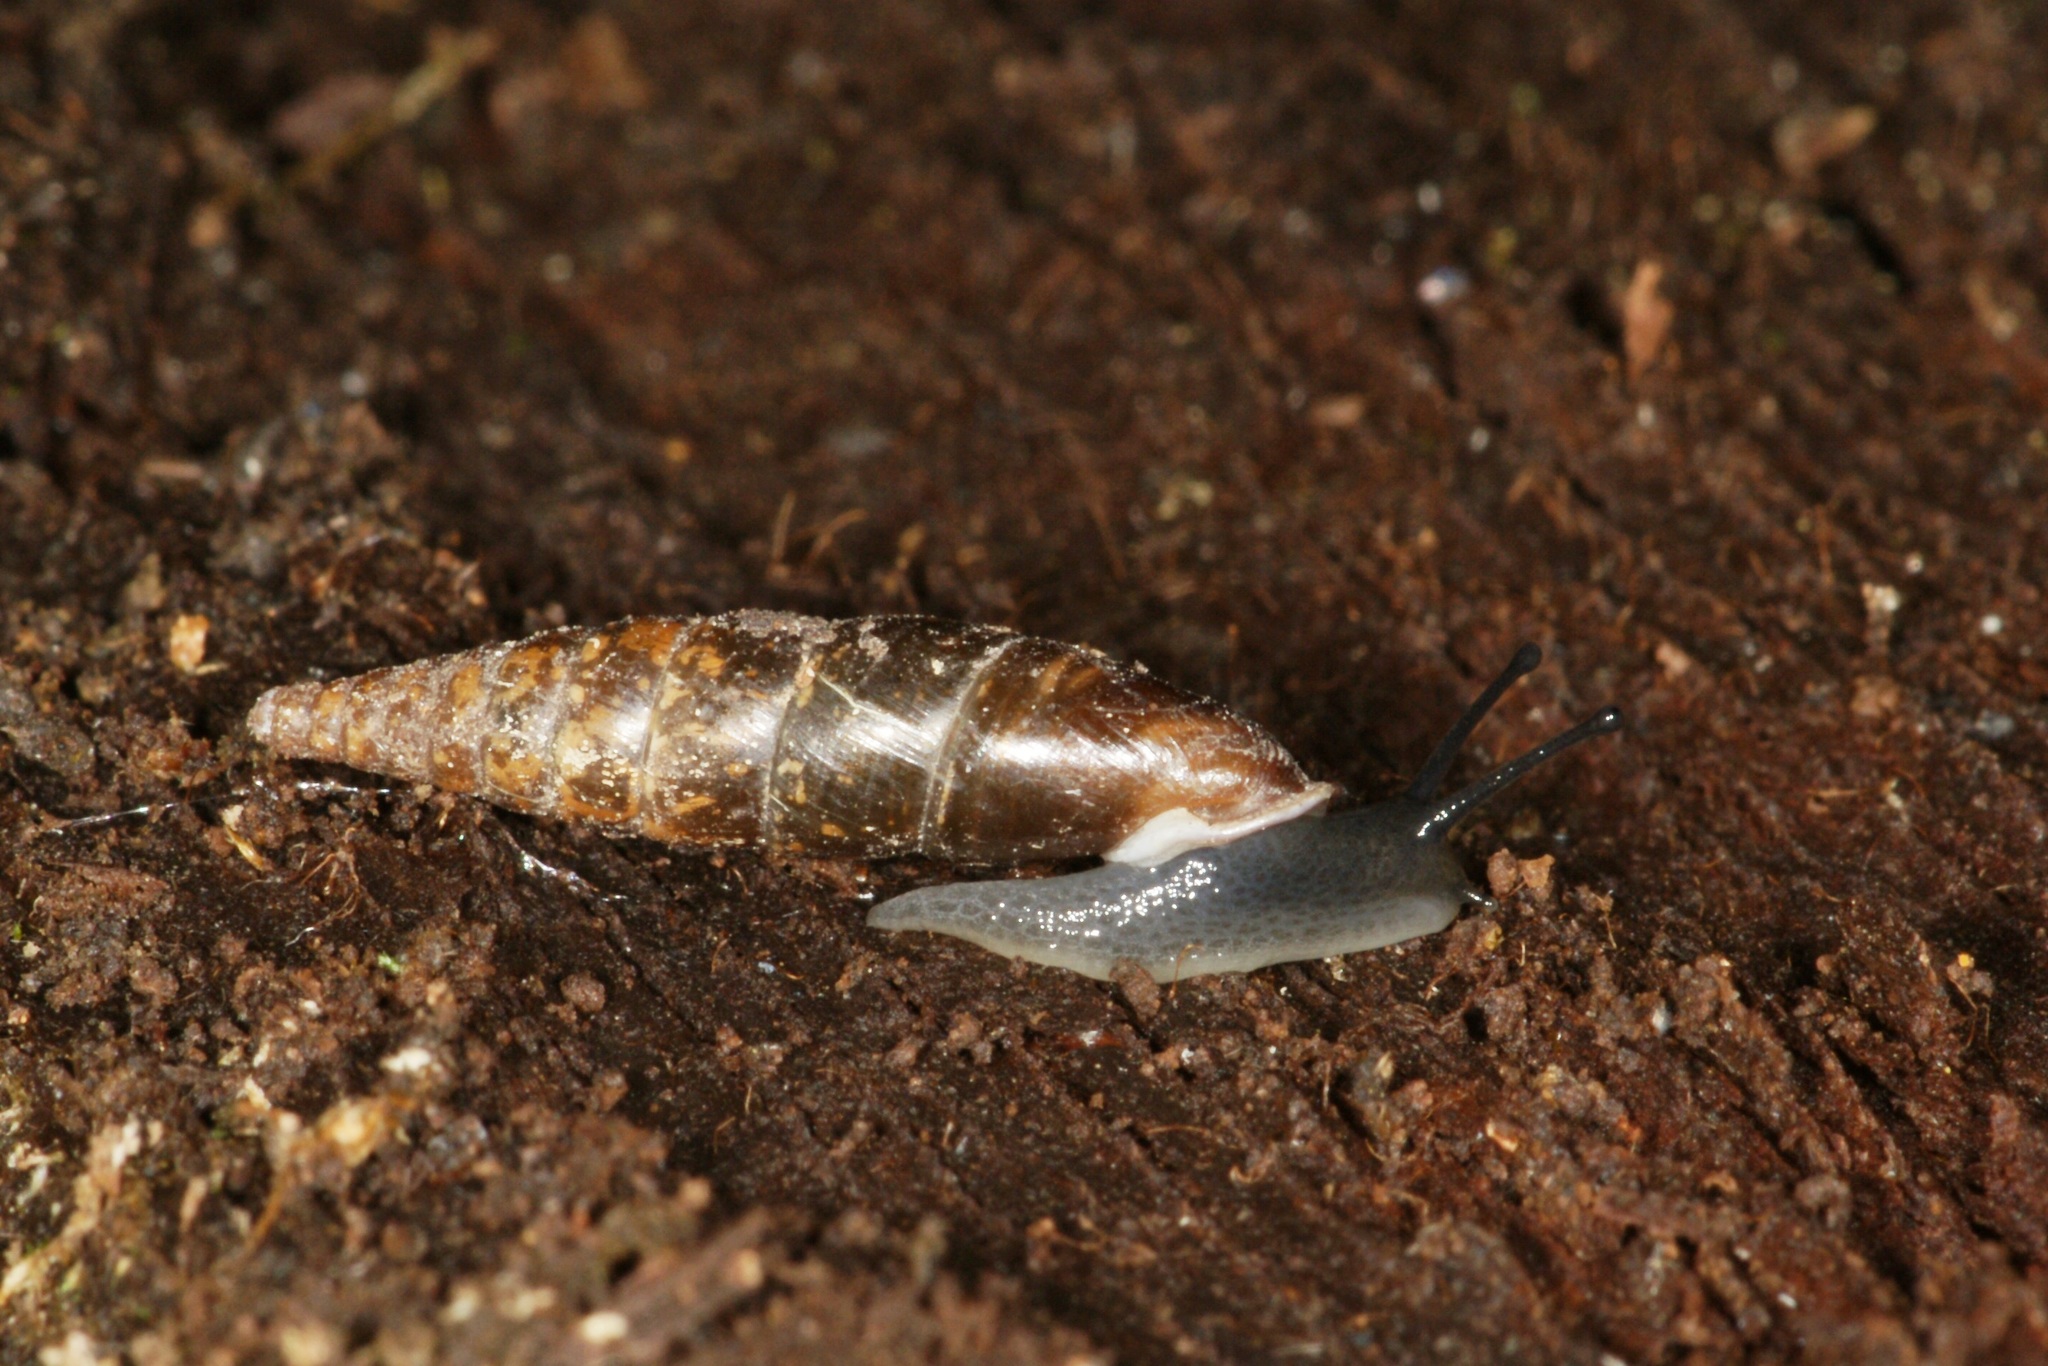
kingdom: Animalia
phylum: Mollusca
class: Gastropoda
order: Stylommatophora
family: Clausiliidae
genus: Cochlodina
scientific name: Cochlodina laminata
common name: Plaited door snail
